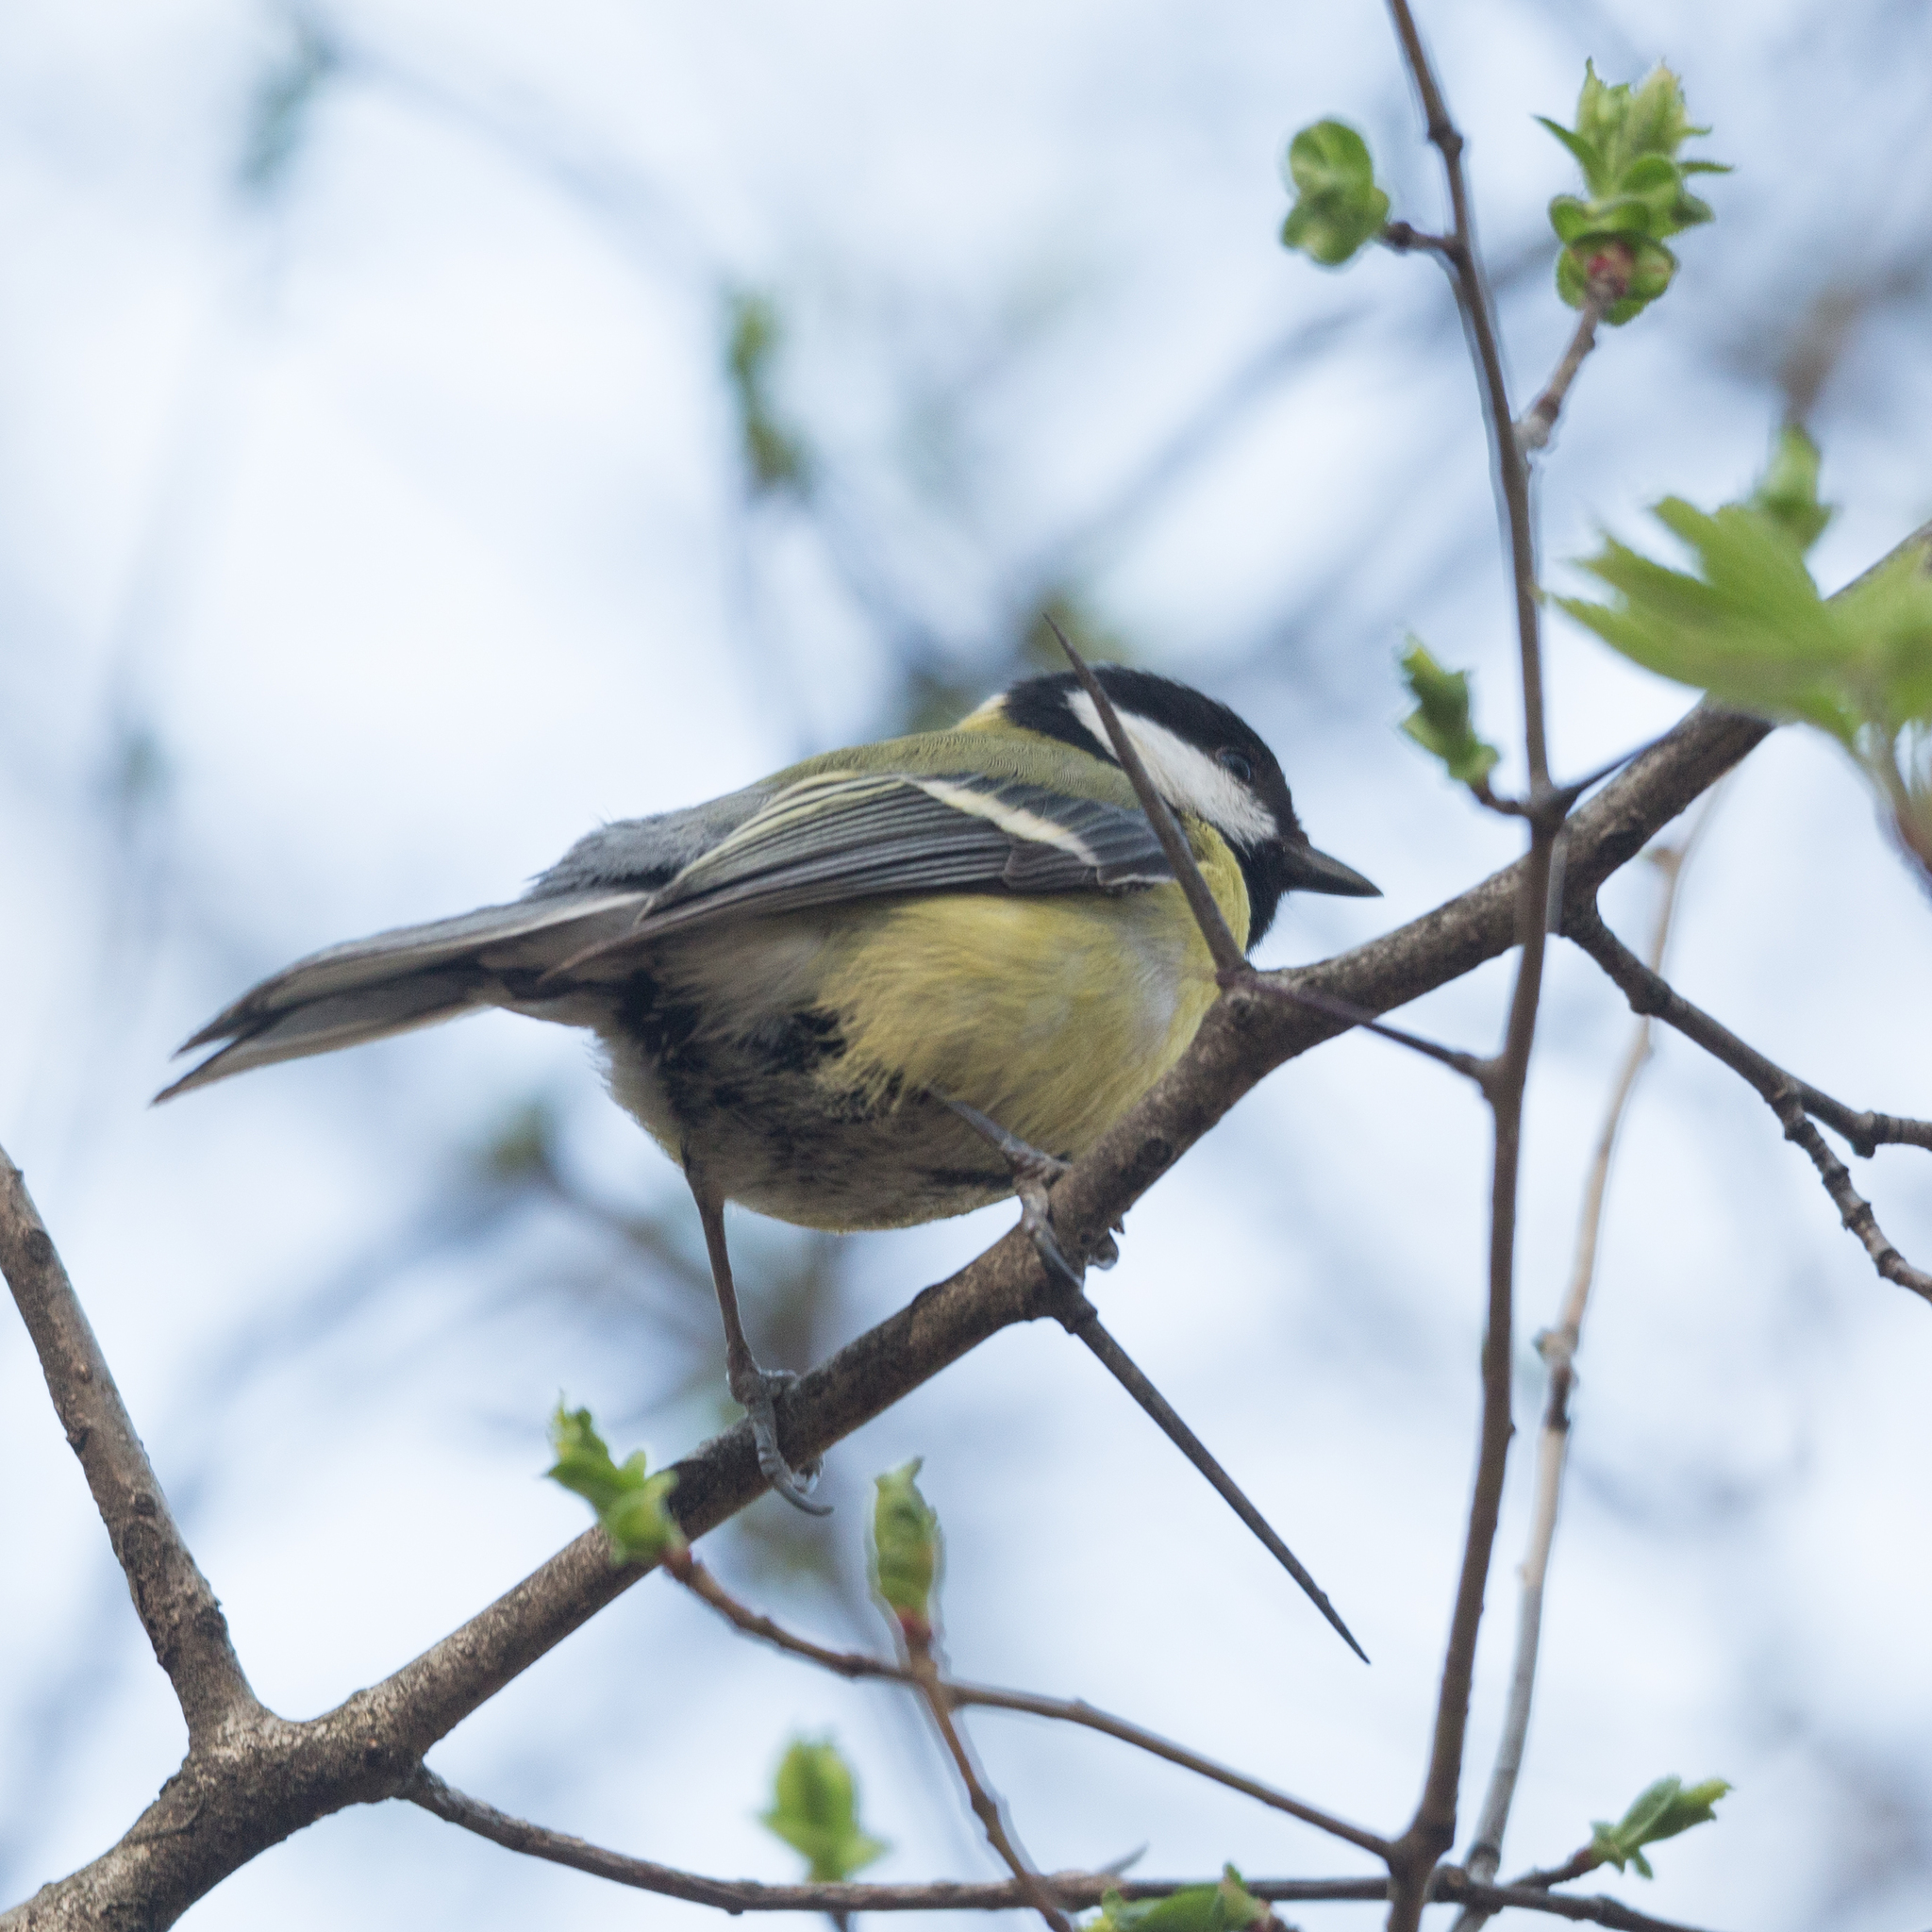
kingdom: Animalia
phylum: Chordata
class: Aves
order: Passeriformes
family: Paridae
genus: Parus
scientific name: Parus major
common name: Great tit
